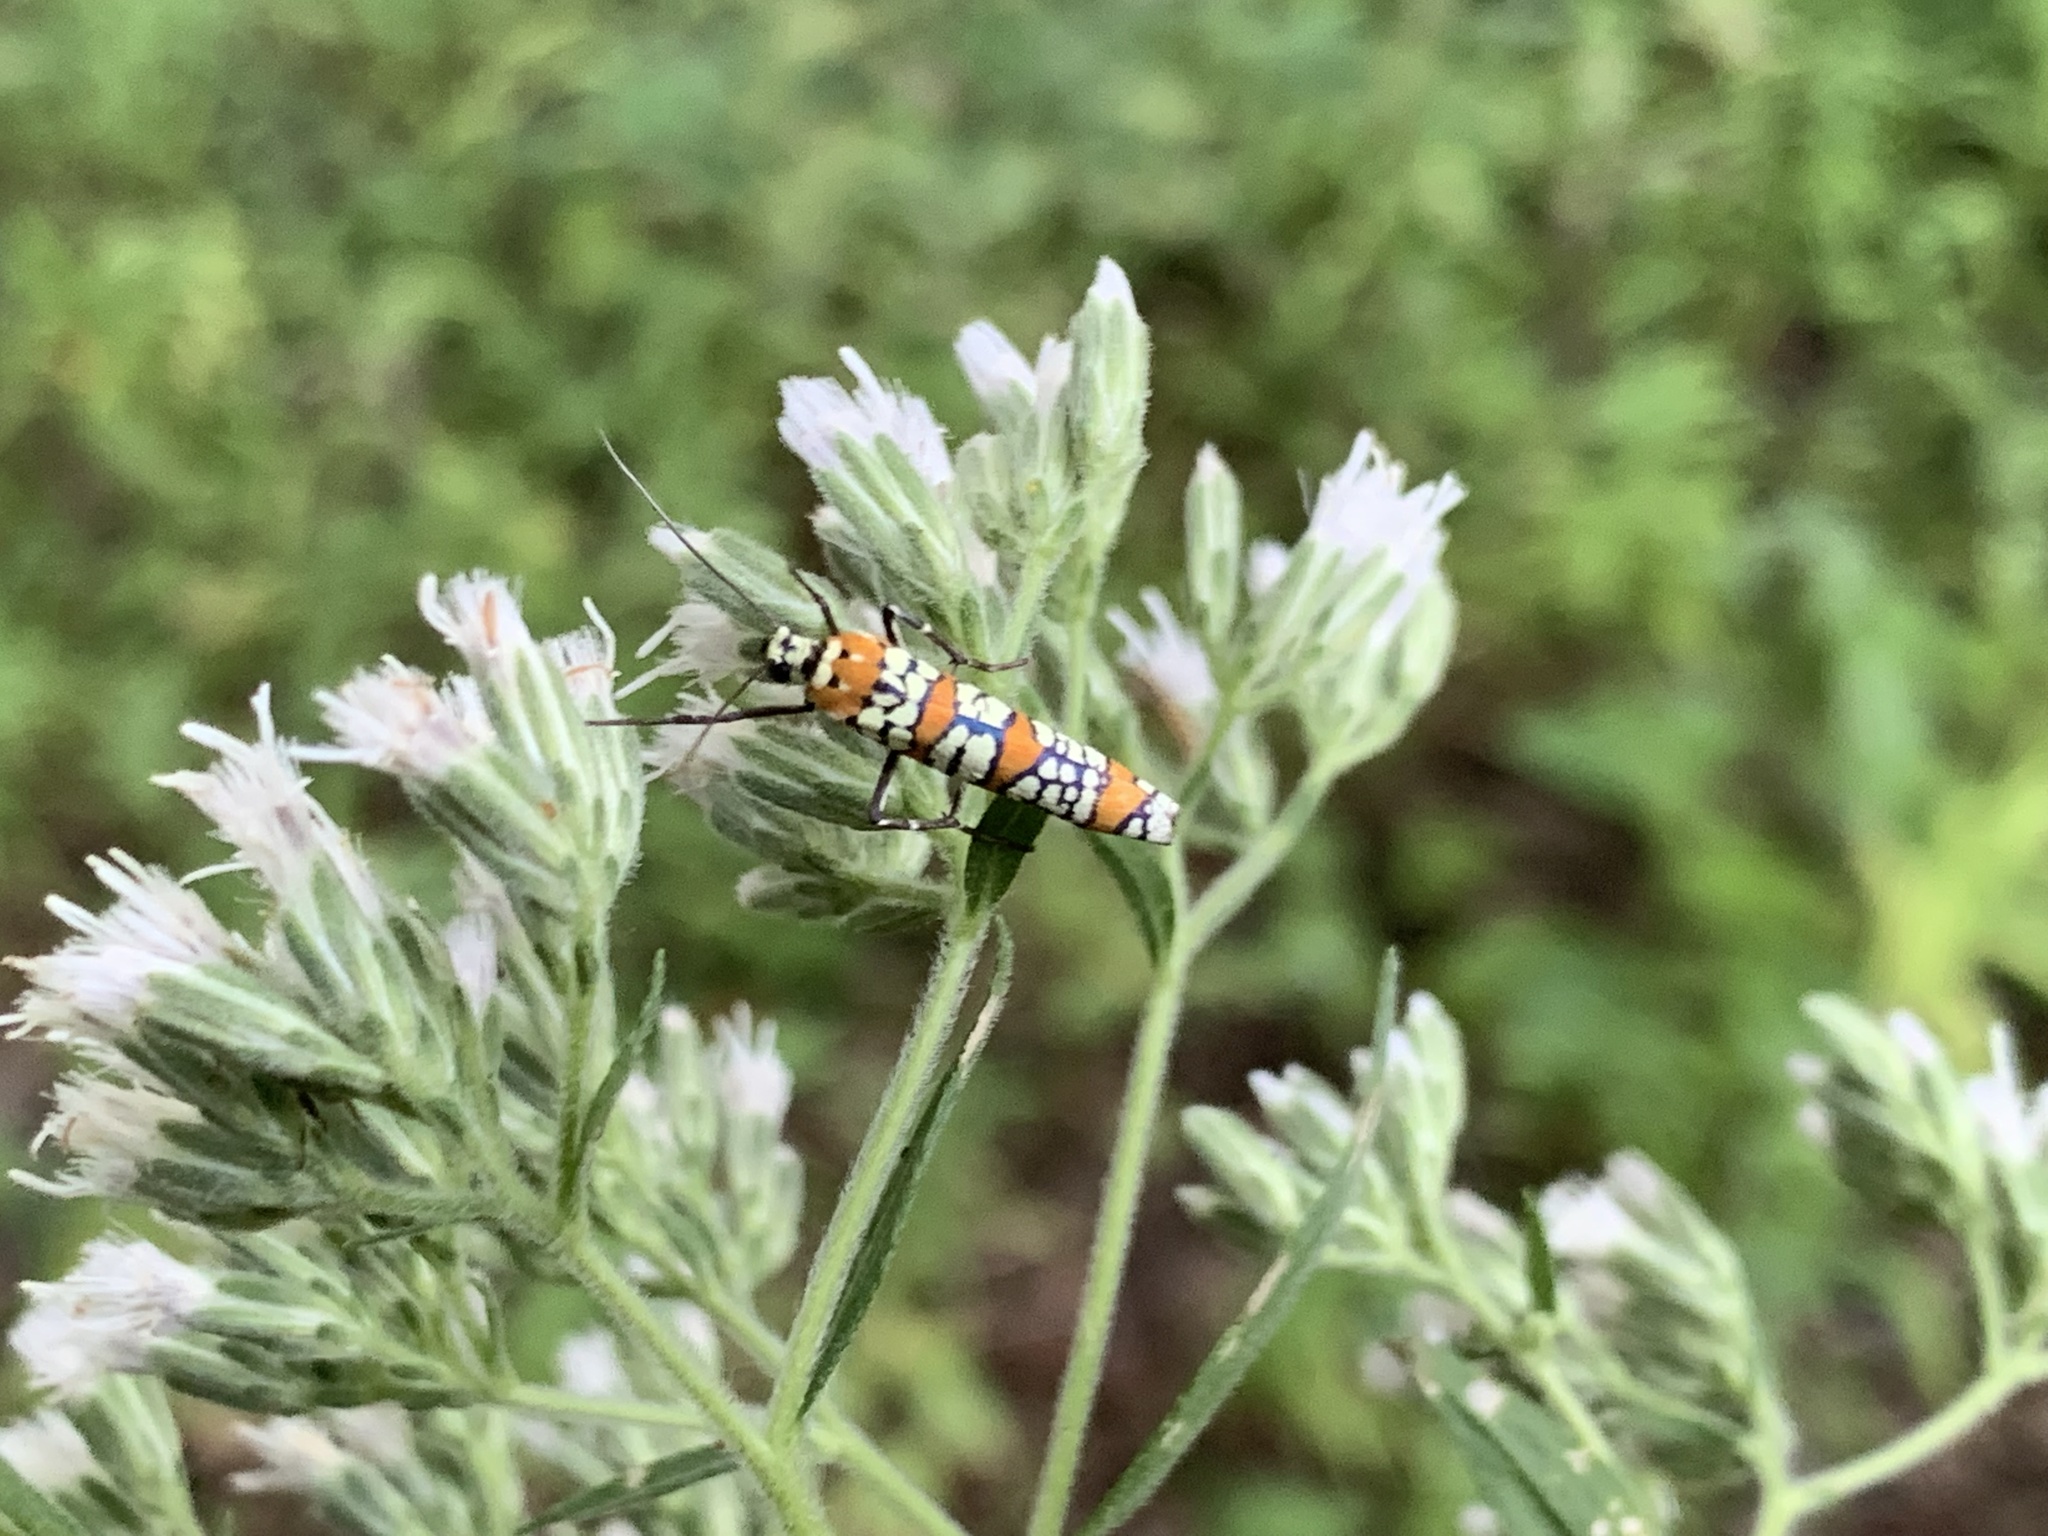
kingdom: Animalia
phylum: Arthropoda
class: Insecta
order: Lepidoptera
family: Attevidae
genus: Atteva
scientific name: Atteva punctella
